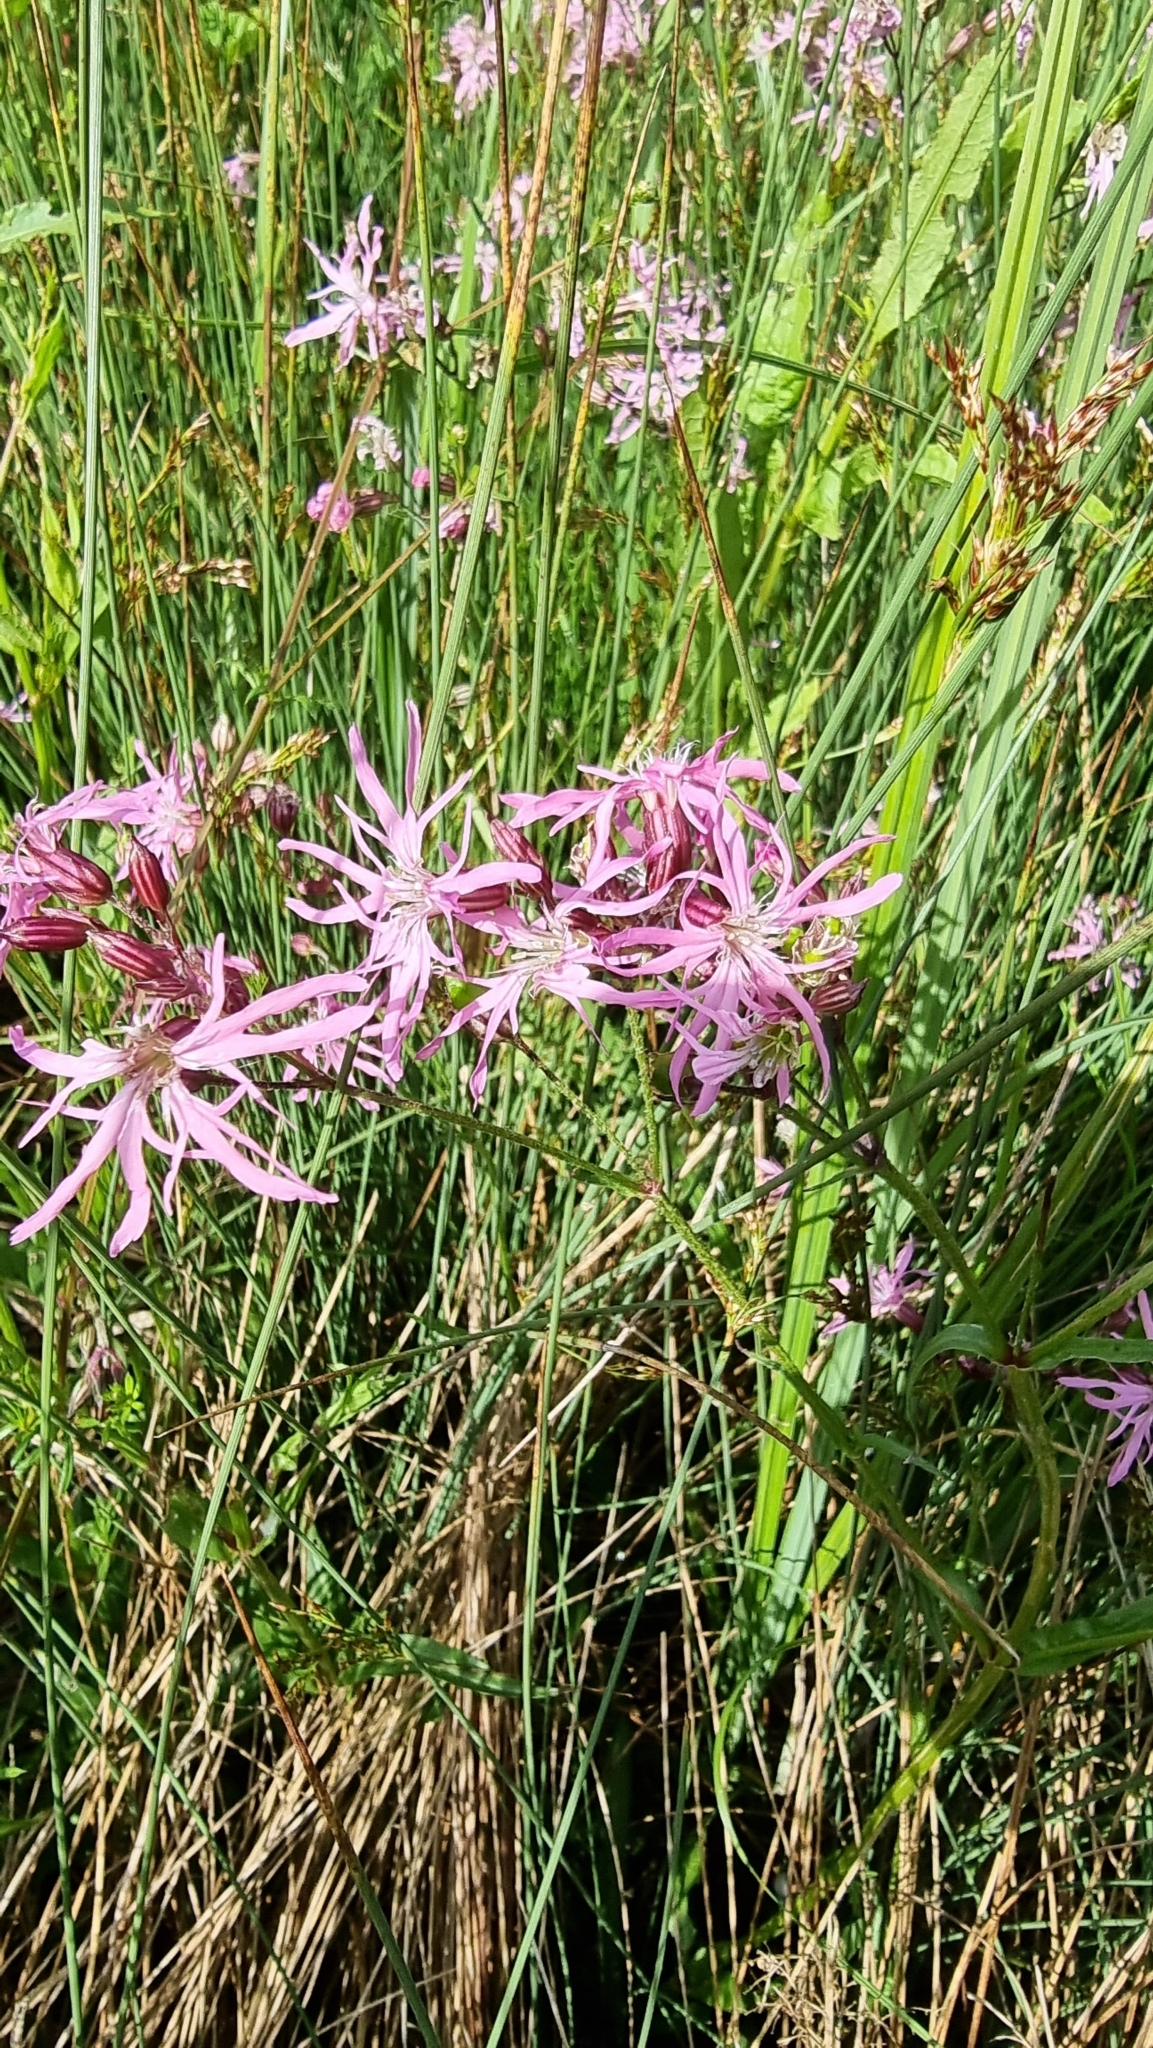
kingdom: Plantae
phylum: Tracheophyta
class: Magnoliopsida
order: Caryophyllales
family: Caryophyllaceae
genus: Silene
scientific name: Silene flos-cuculi
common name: Ragged-robin
